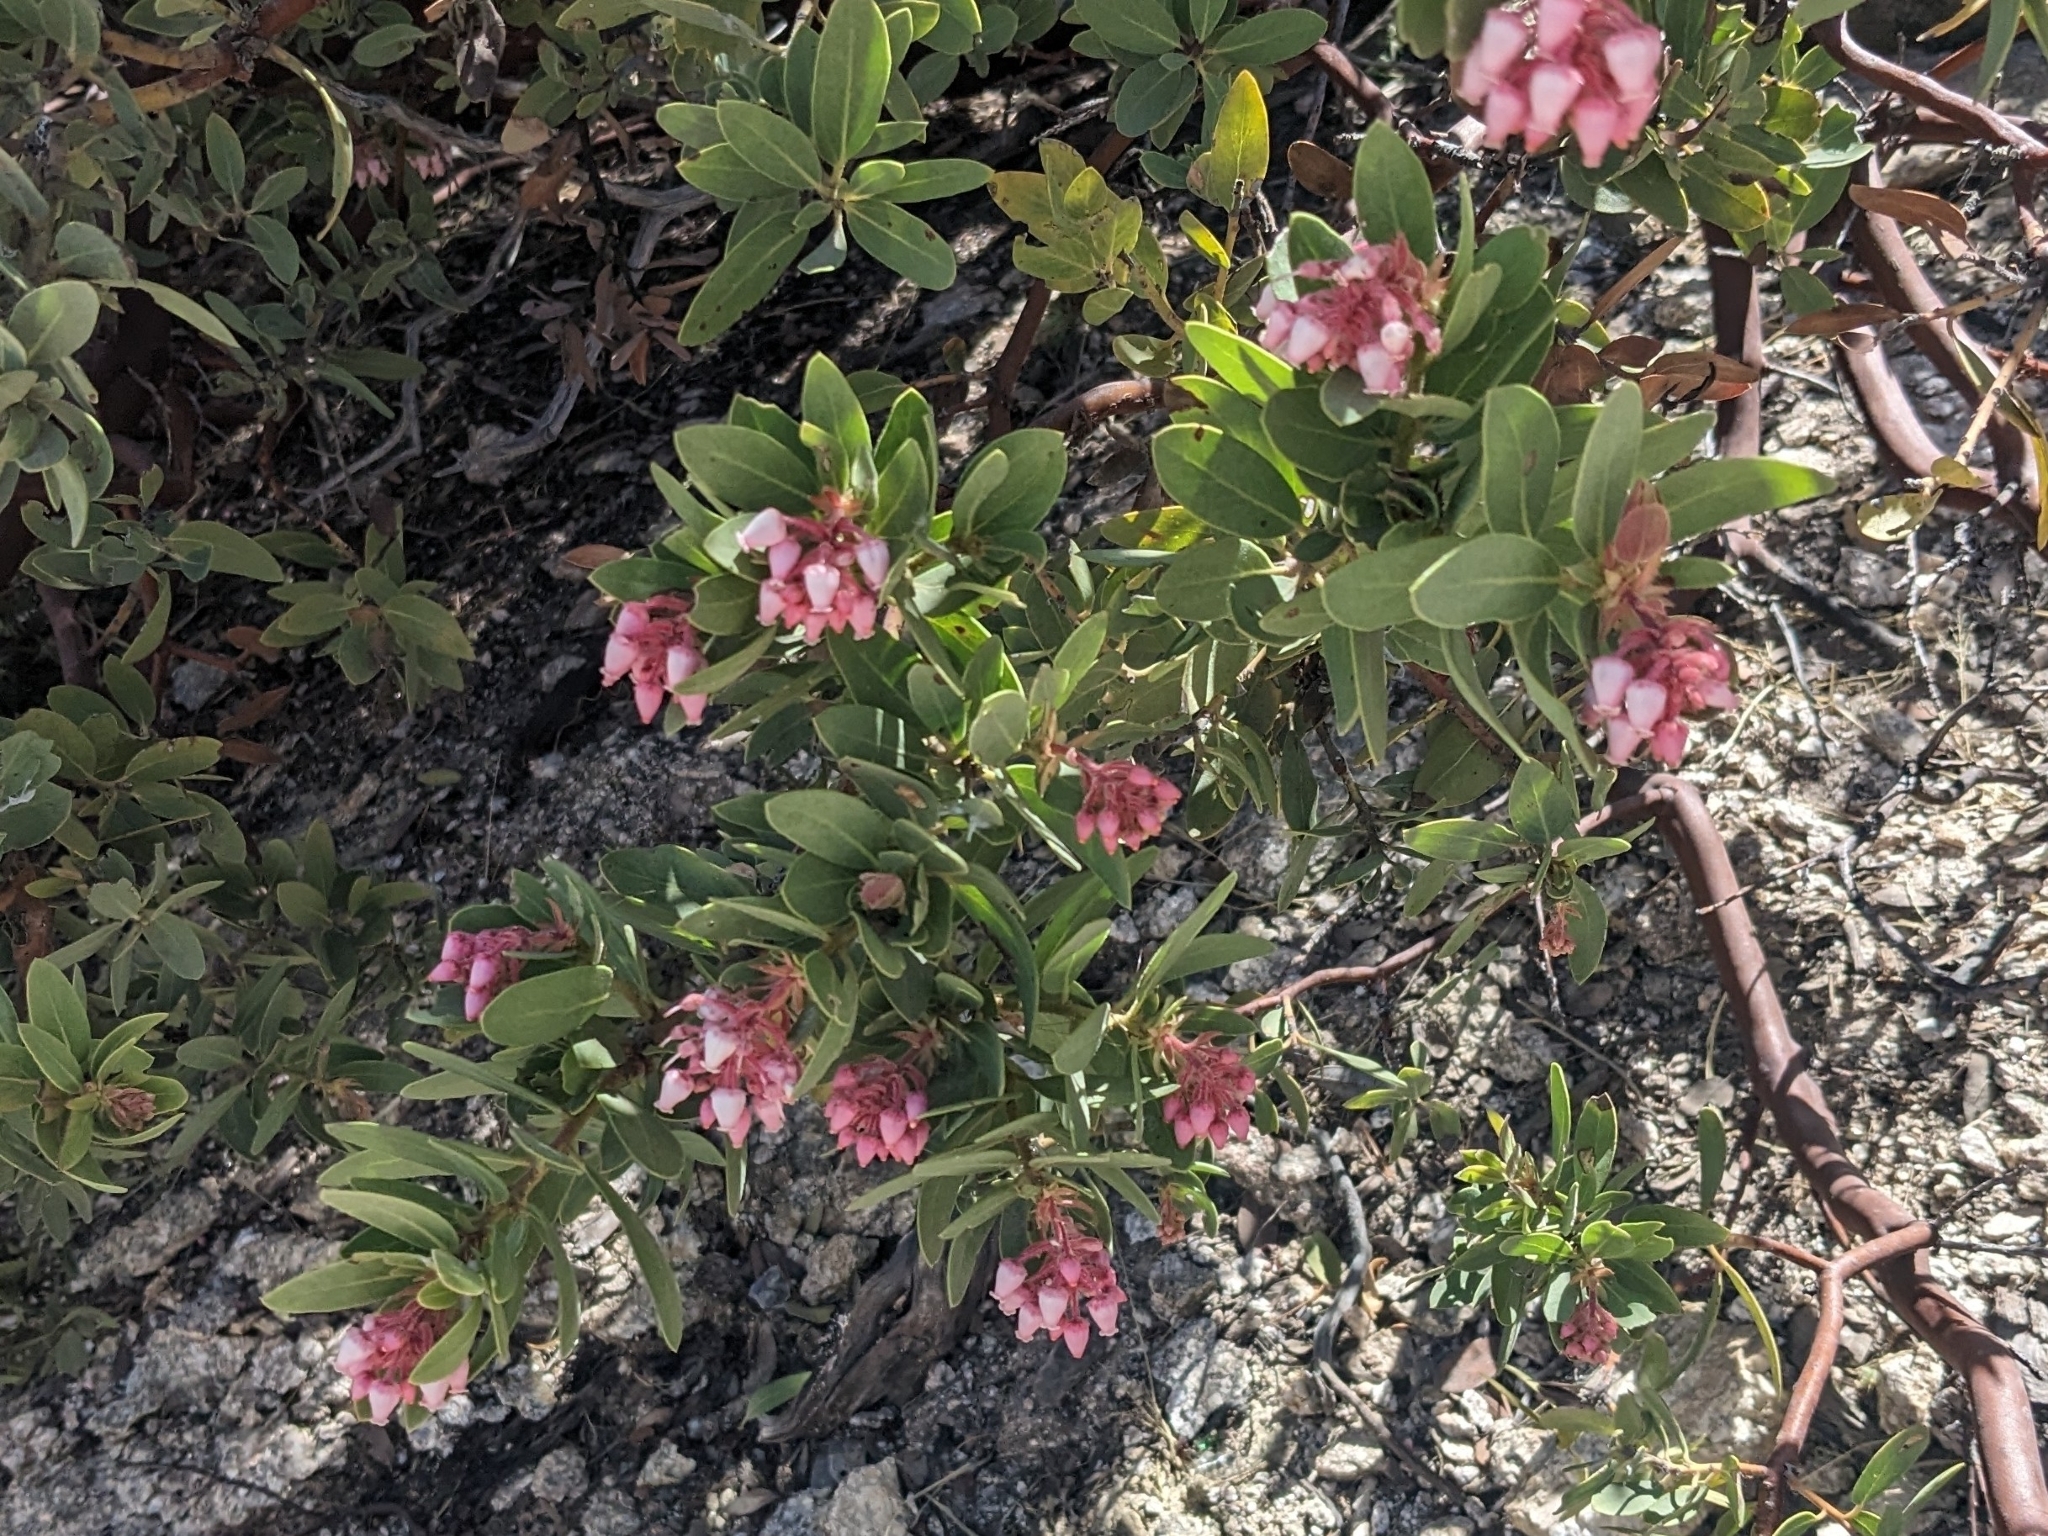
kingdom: Plantae
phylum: Tracheophyta
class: Magnoliopsida
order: Ericales
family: Ericaceae
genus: Arctostaphylos
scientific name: Arctostaphylos pringlei
